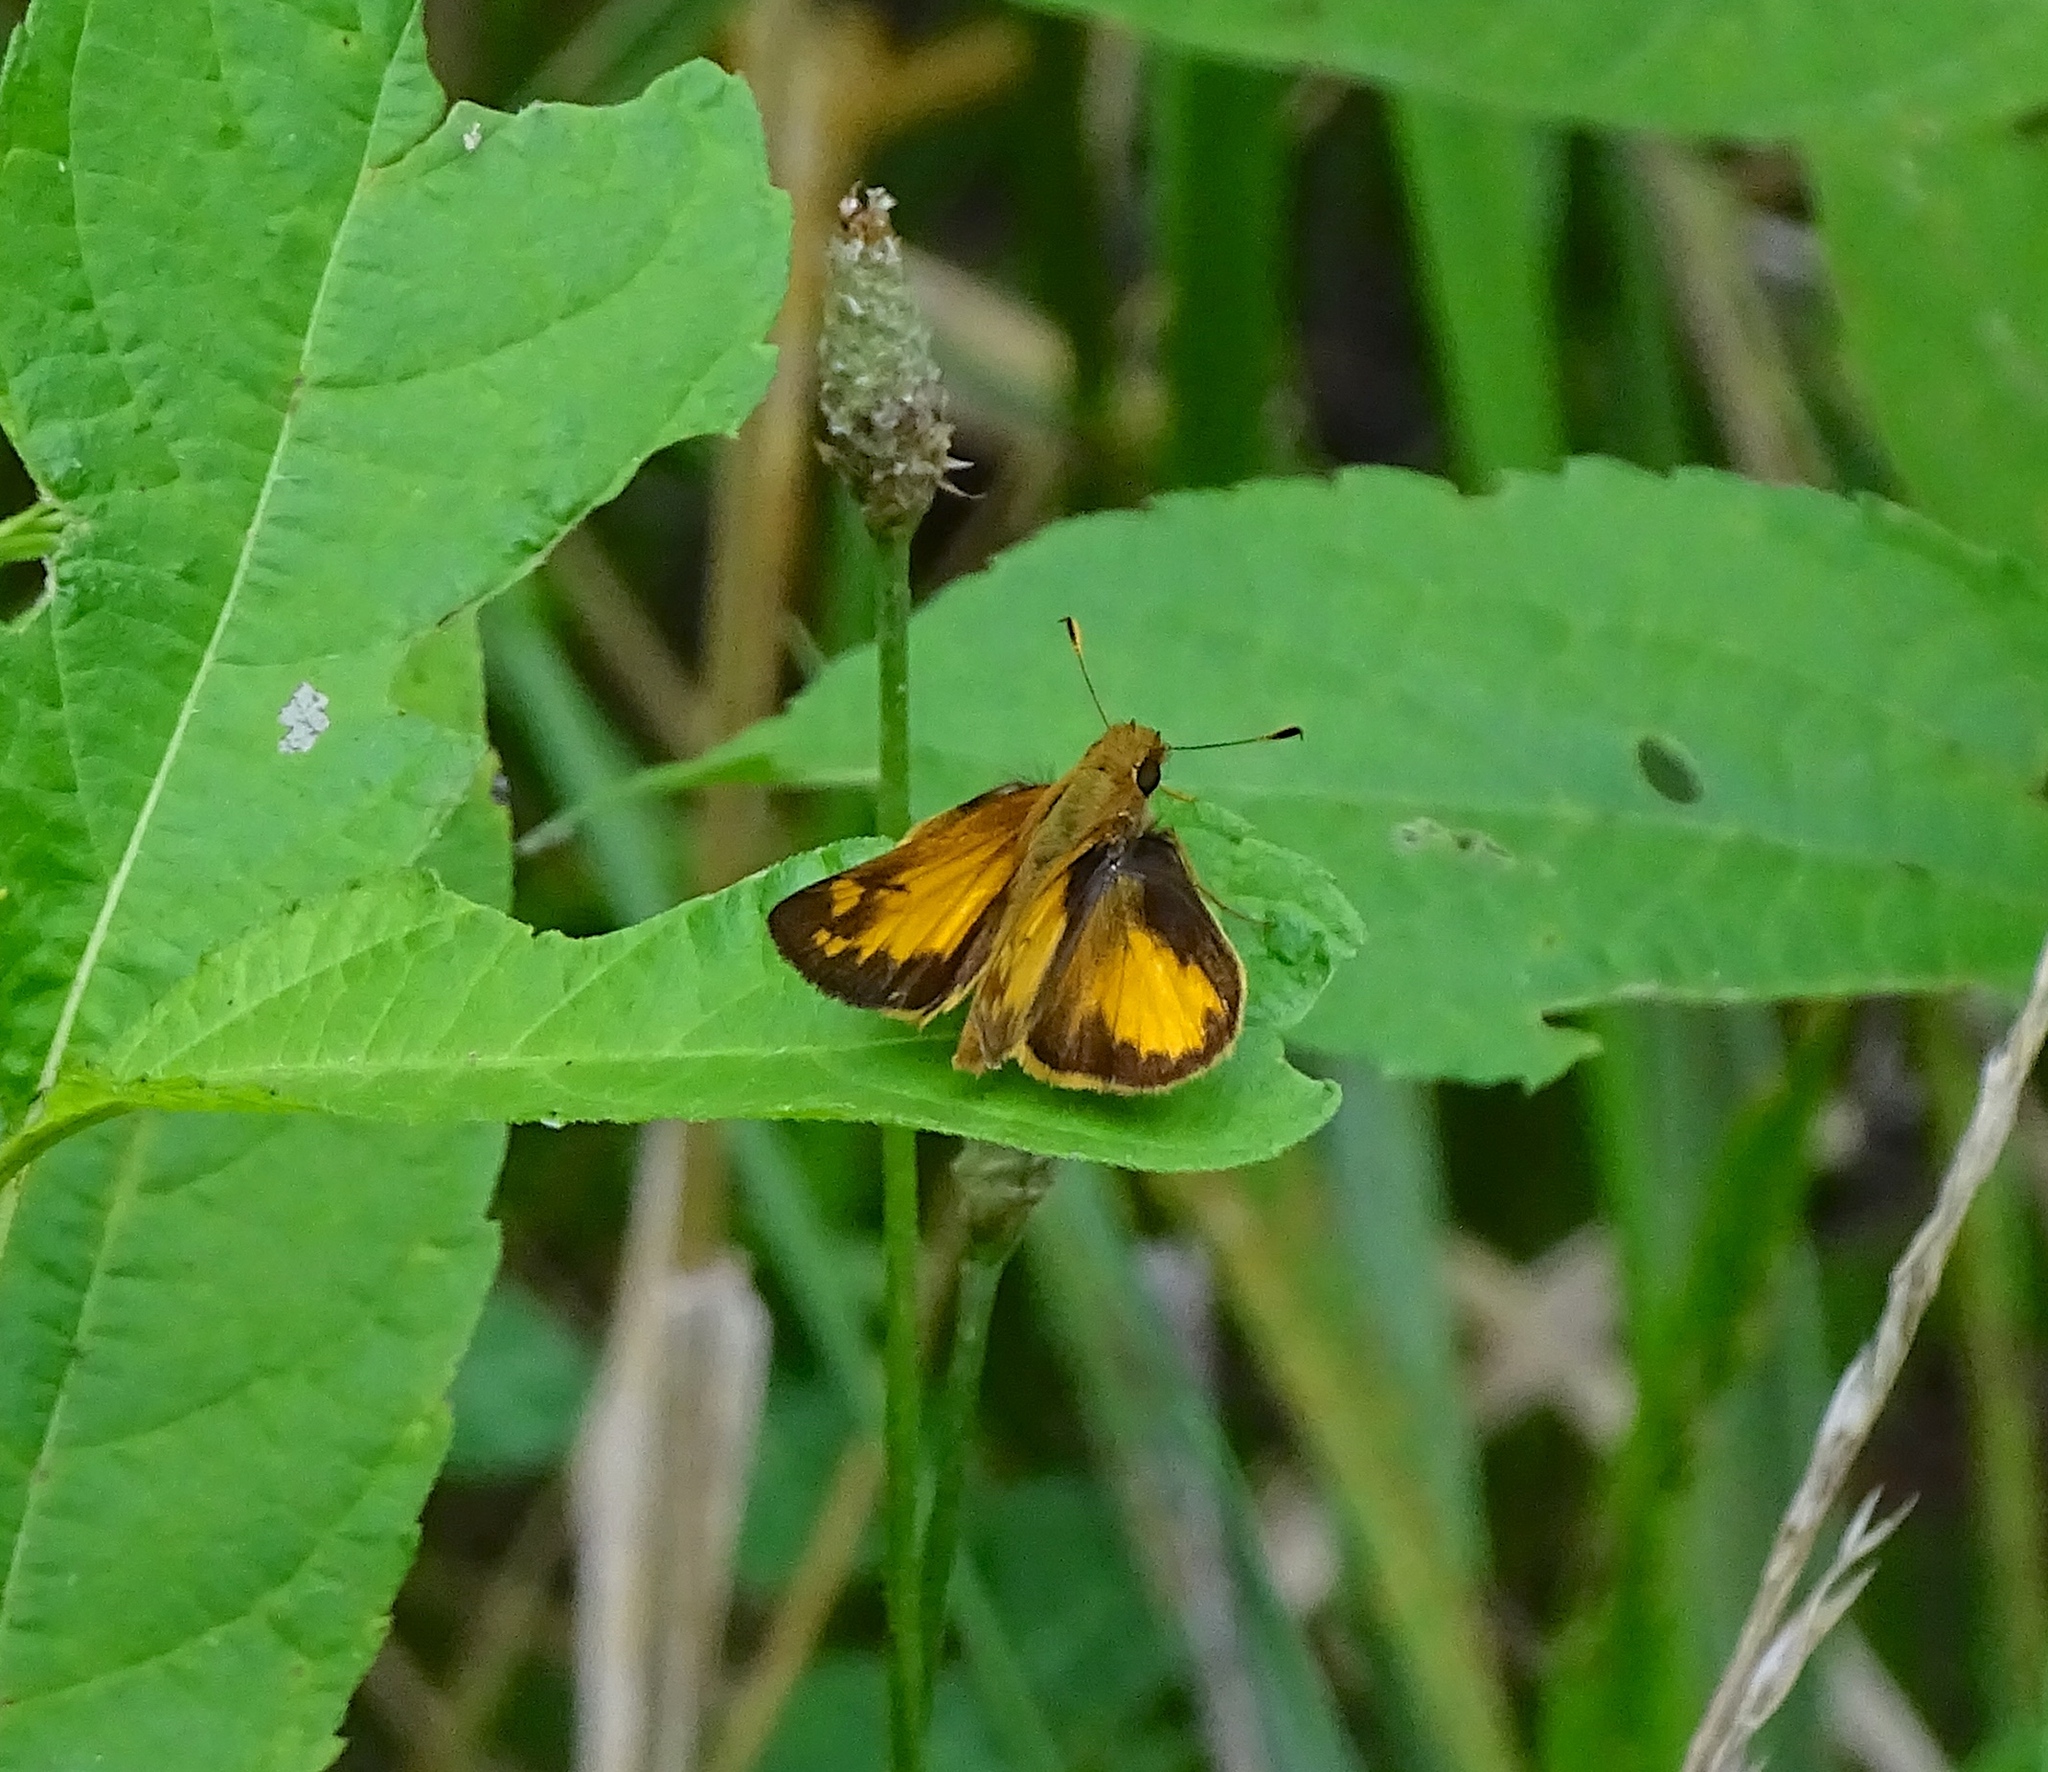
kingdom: Animalia
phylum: Arthropoda
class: Insecta
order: Lepidoptera
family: Hesperiidae
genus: Lon
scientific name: Lon zabulon
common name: Zabulon skipper
